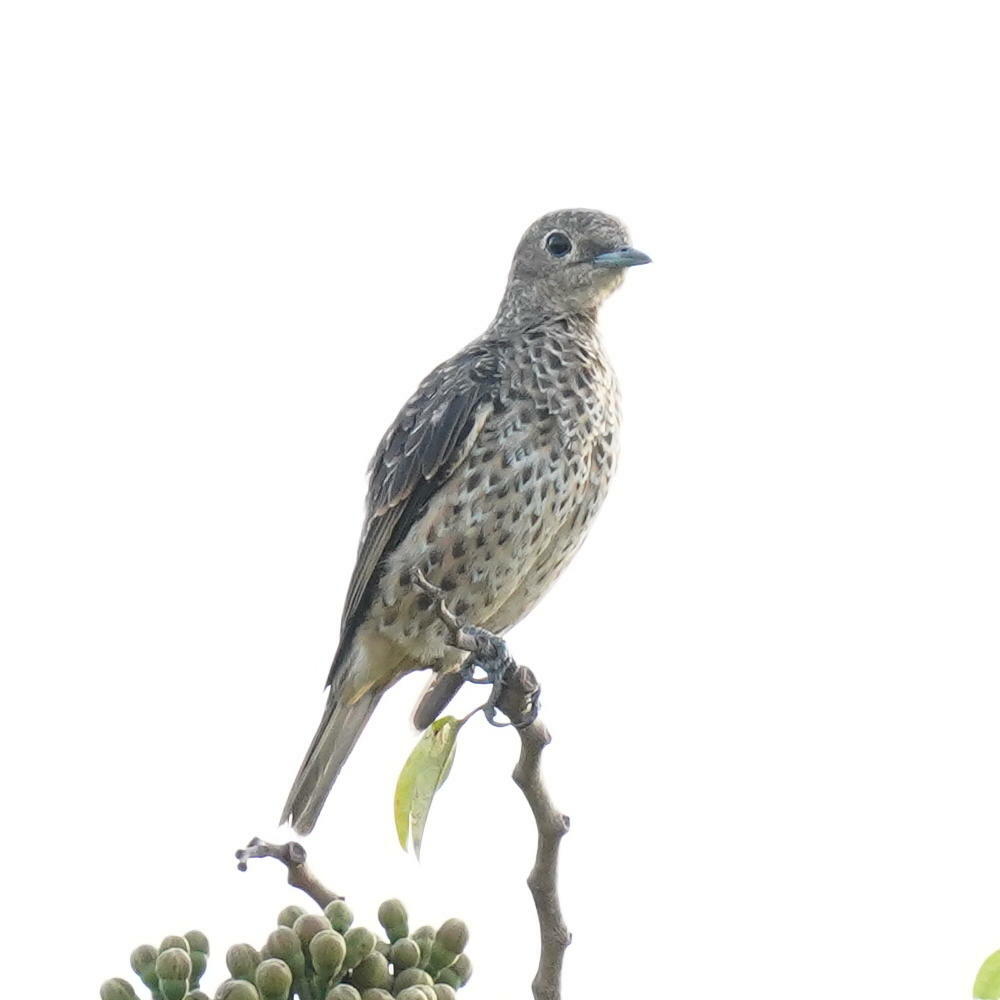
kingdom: Animalia
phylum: Chordata
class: Aves
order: Passeriformes
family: Cotingidae
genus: Cotinga
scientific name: Cotinga nattererii
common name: Blue cotinga
